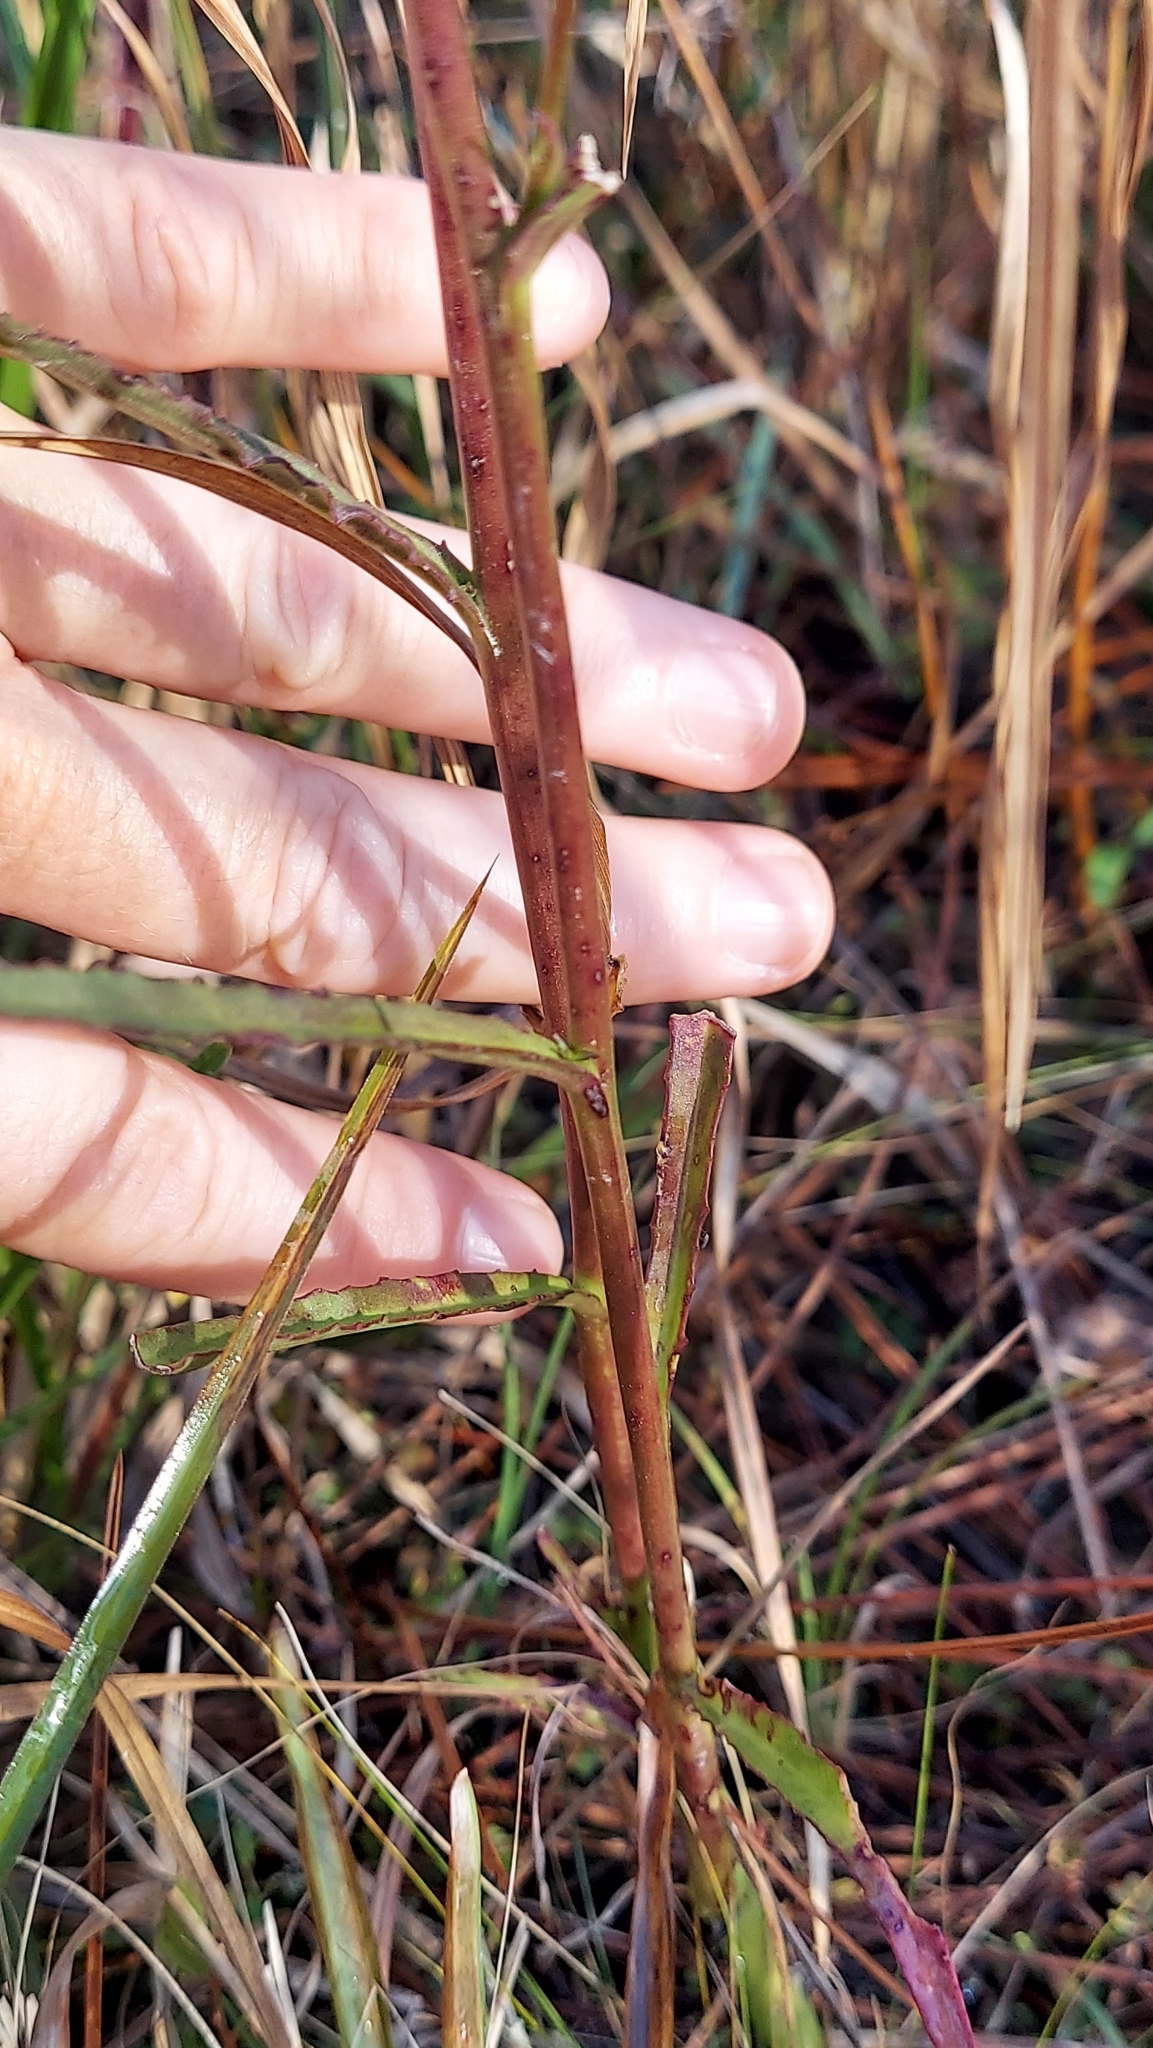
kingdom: Plantae
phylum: Tracheophyta
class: Magnoliopsida
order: Asterales
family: Campanulaceae
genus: Lobelia
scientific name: Lobelia glandulosa
